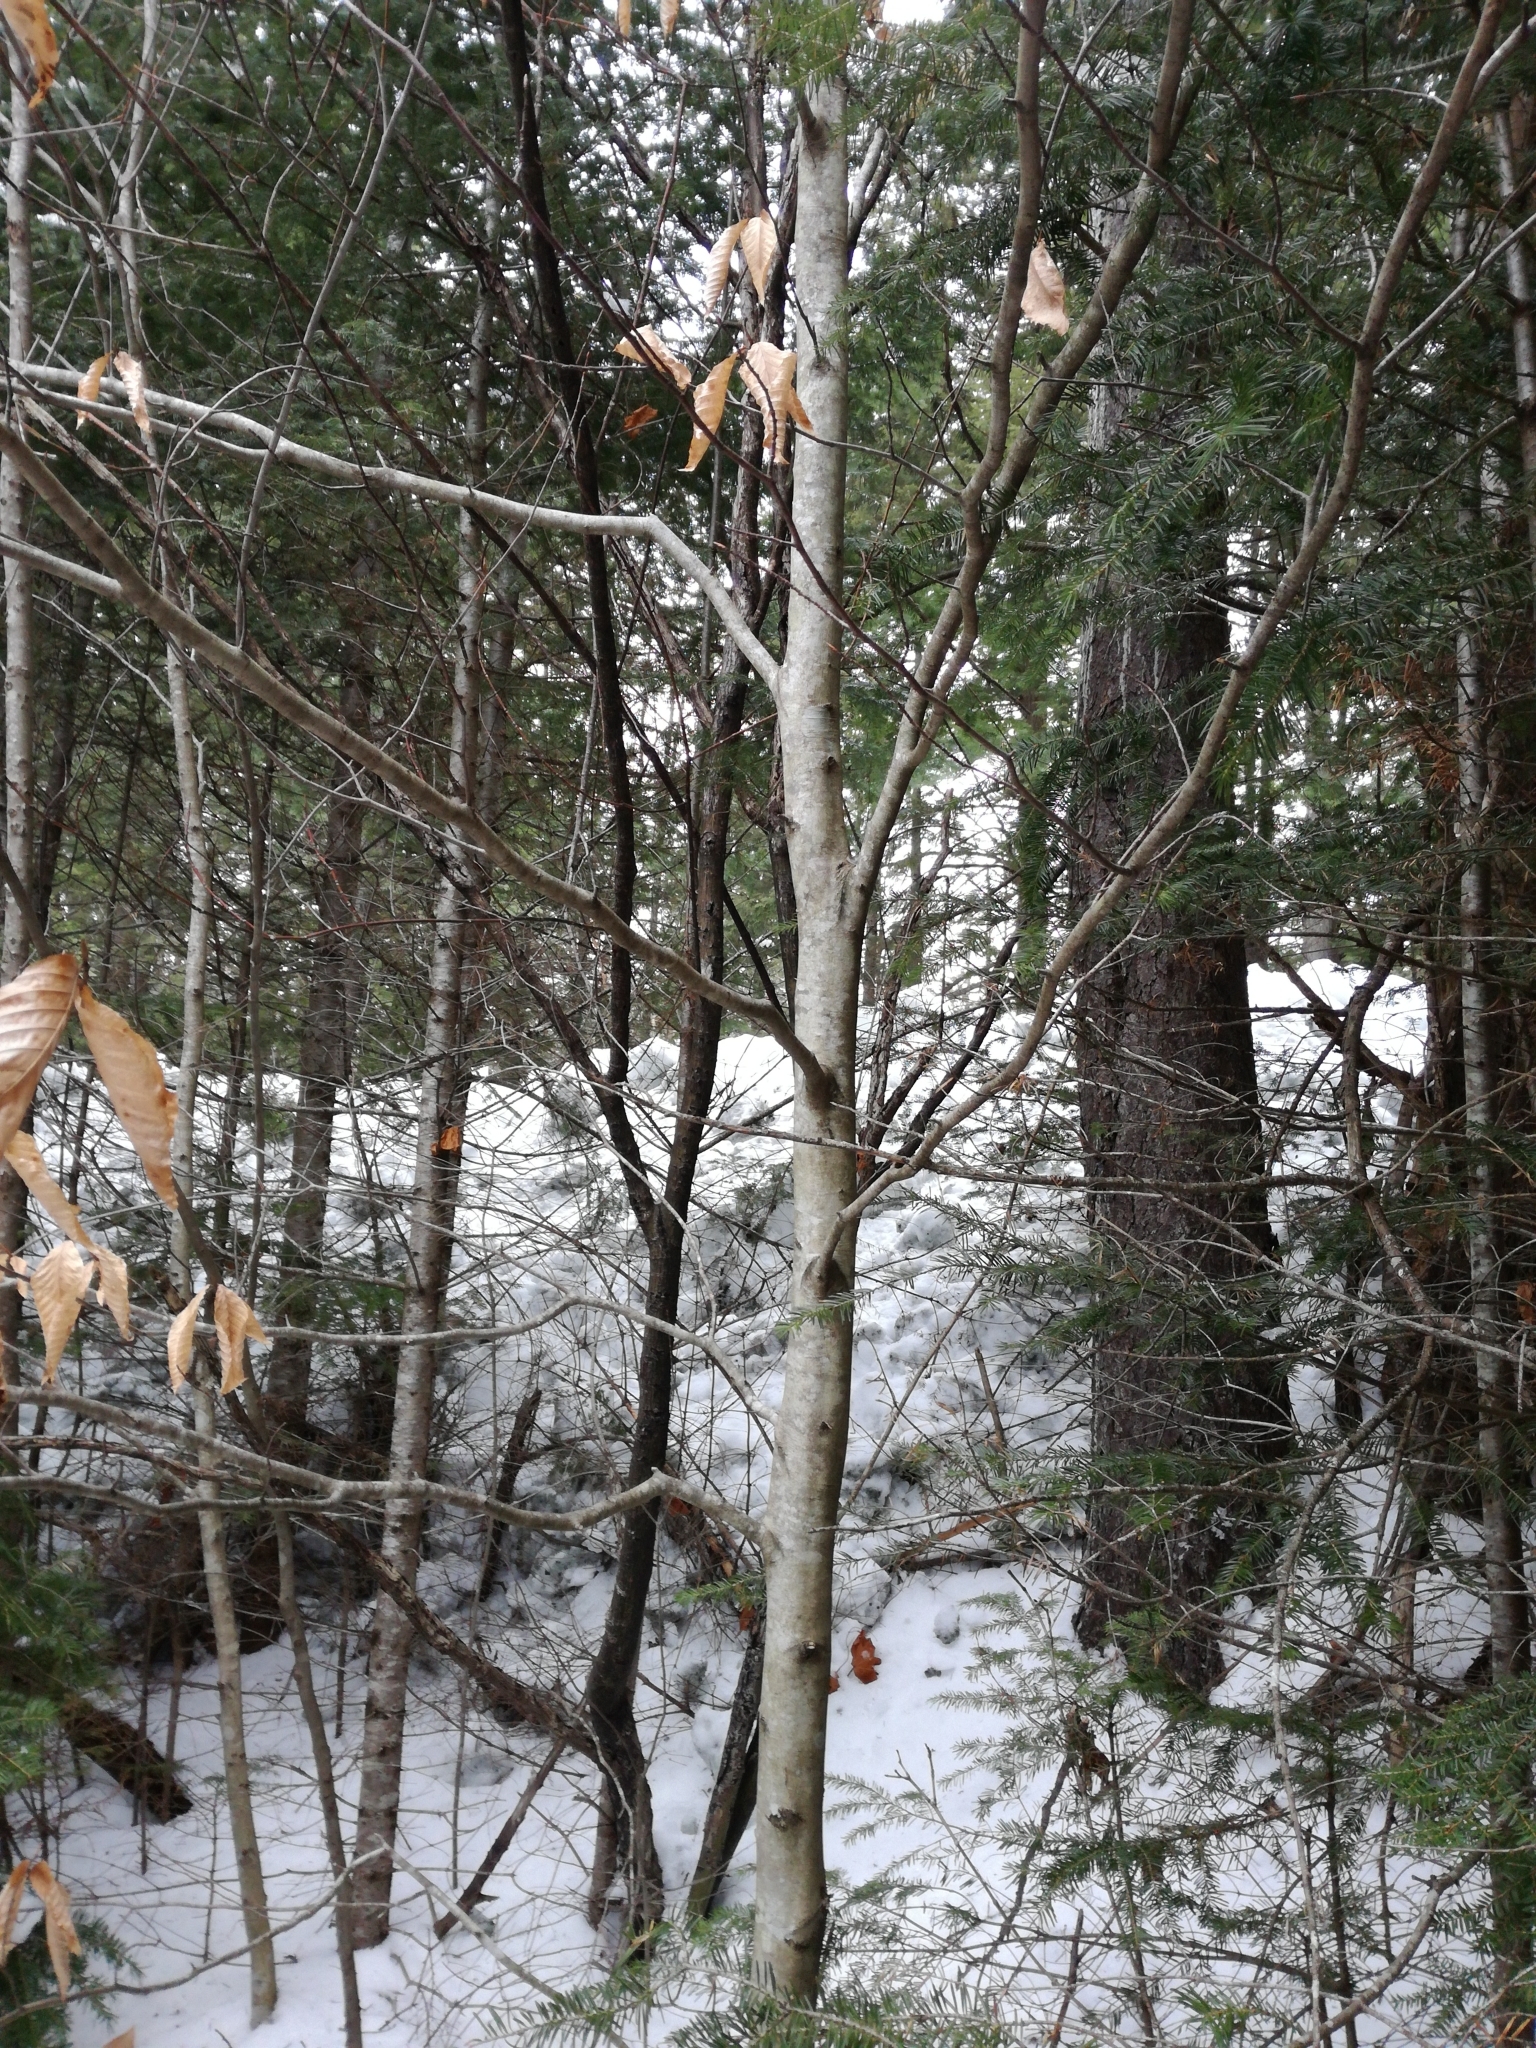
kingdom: Plantae
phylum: Tracheophyta
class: Magnoliopsida
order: Fagales
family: Fagaceae
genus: Fagus
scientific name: Fagus grandifolia
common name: American beech
